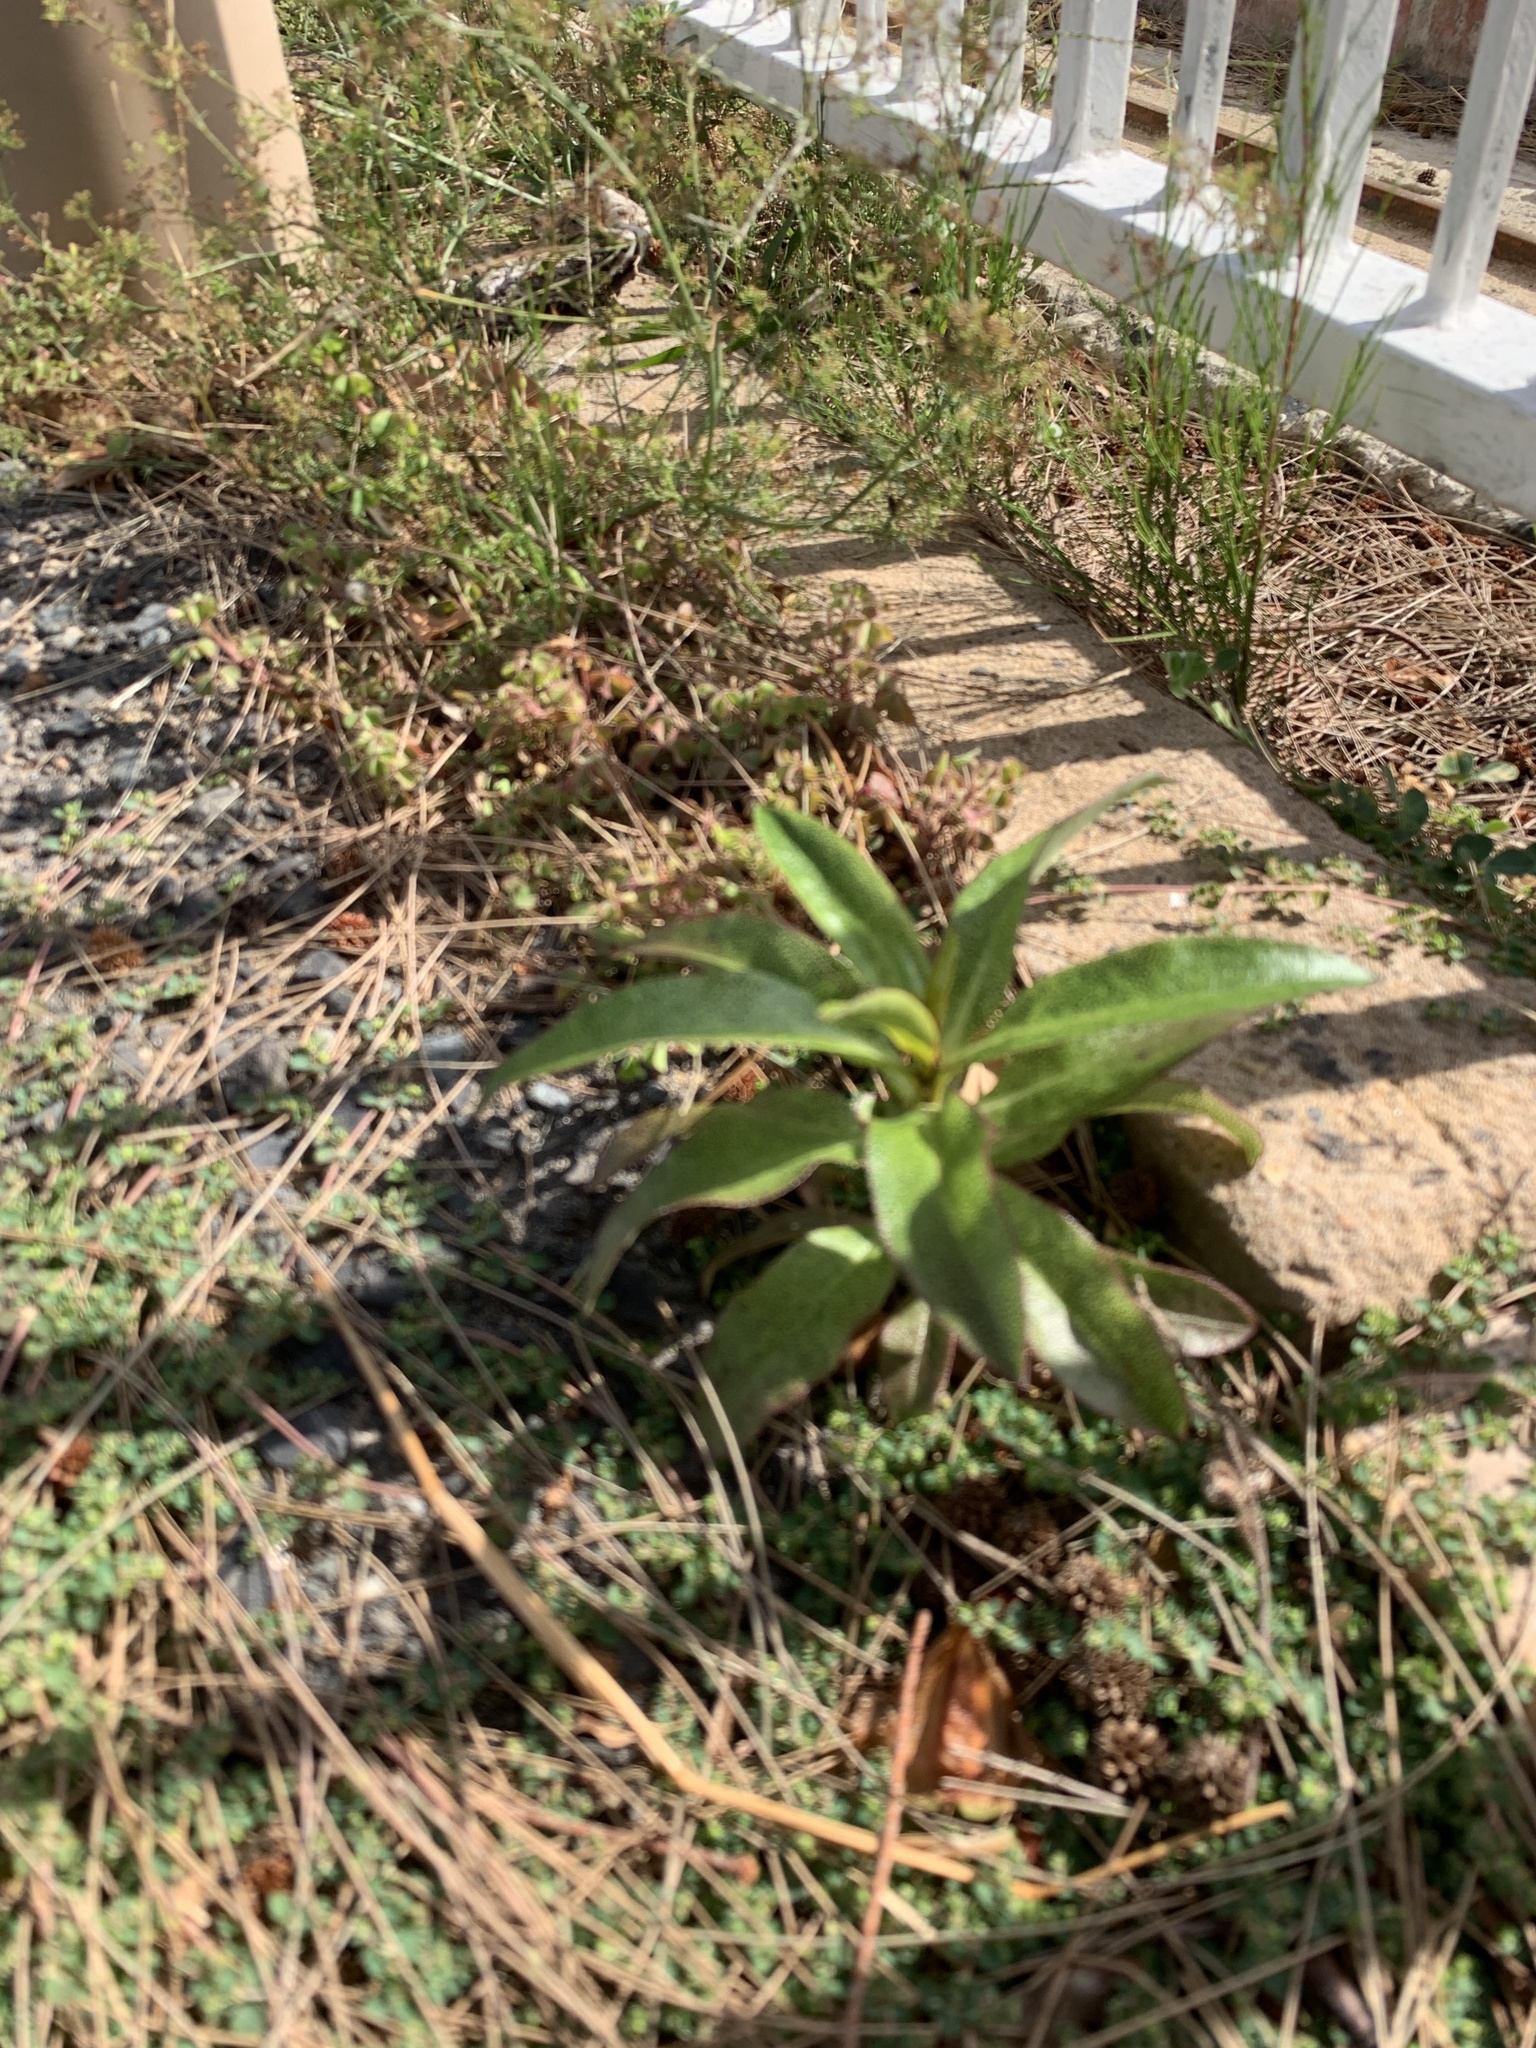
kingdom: Plantae
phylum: Tracheophyta
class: Magnoliopsida
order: Lamiales
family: Scrophulariaceae
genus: Myoporum
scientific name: Myoporum laetum
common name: Ngaio tree
